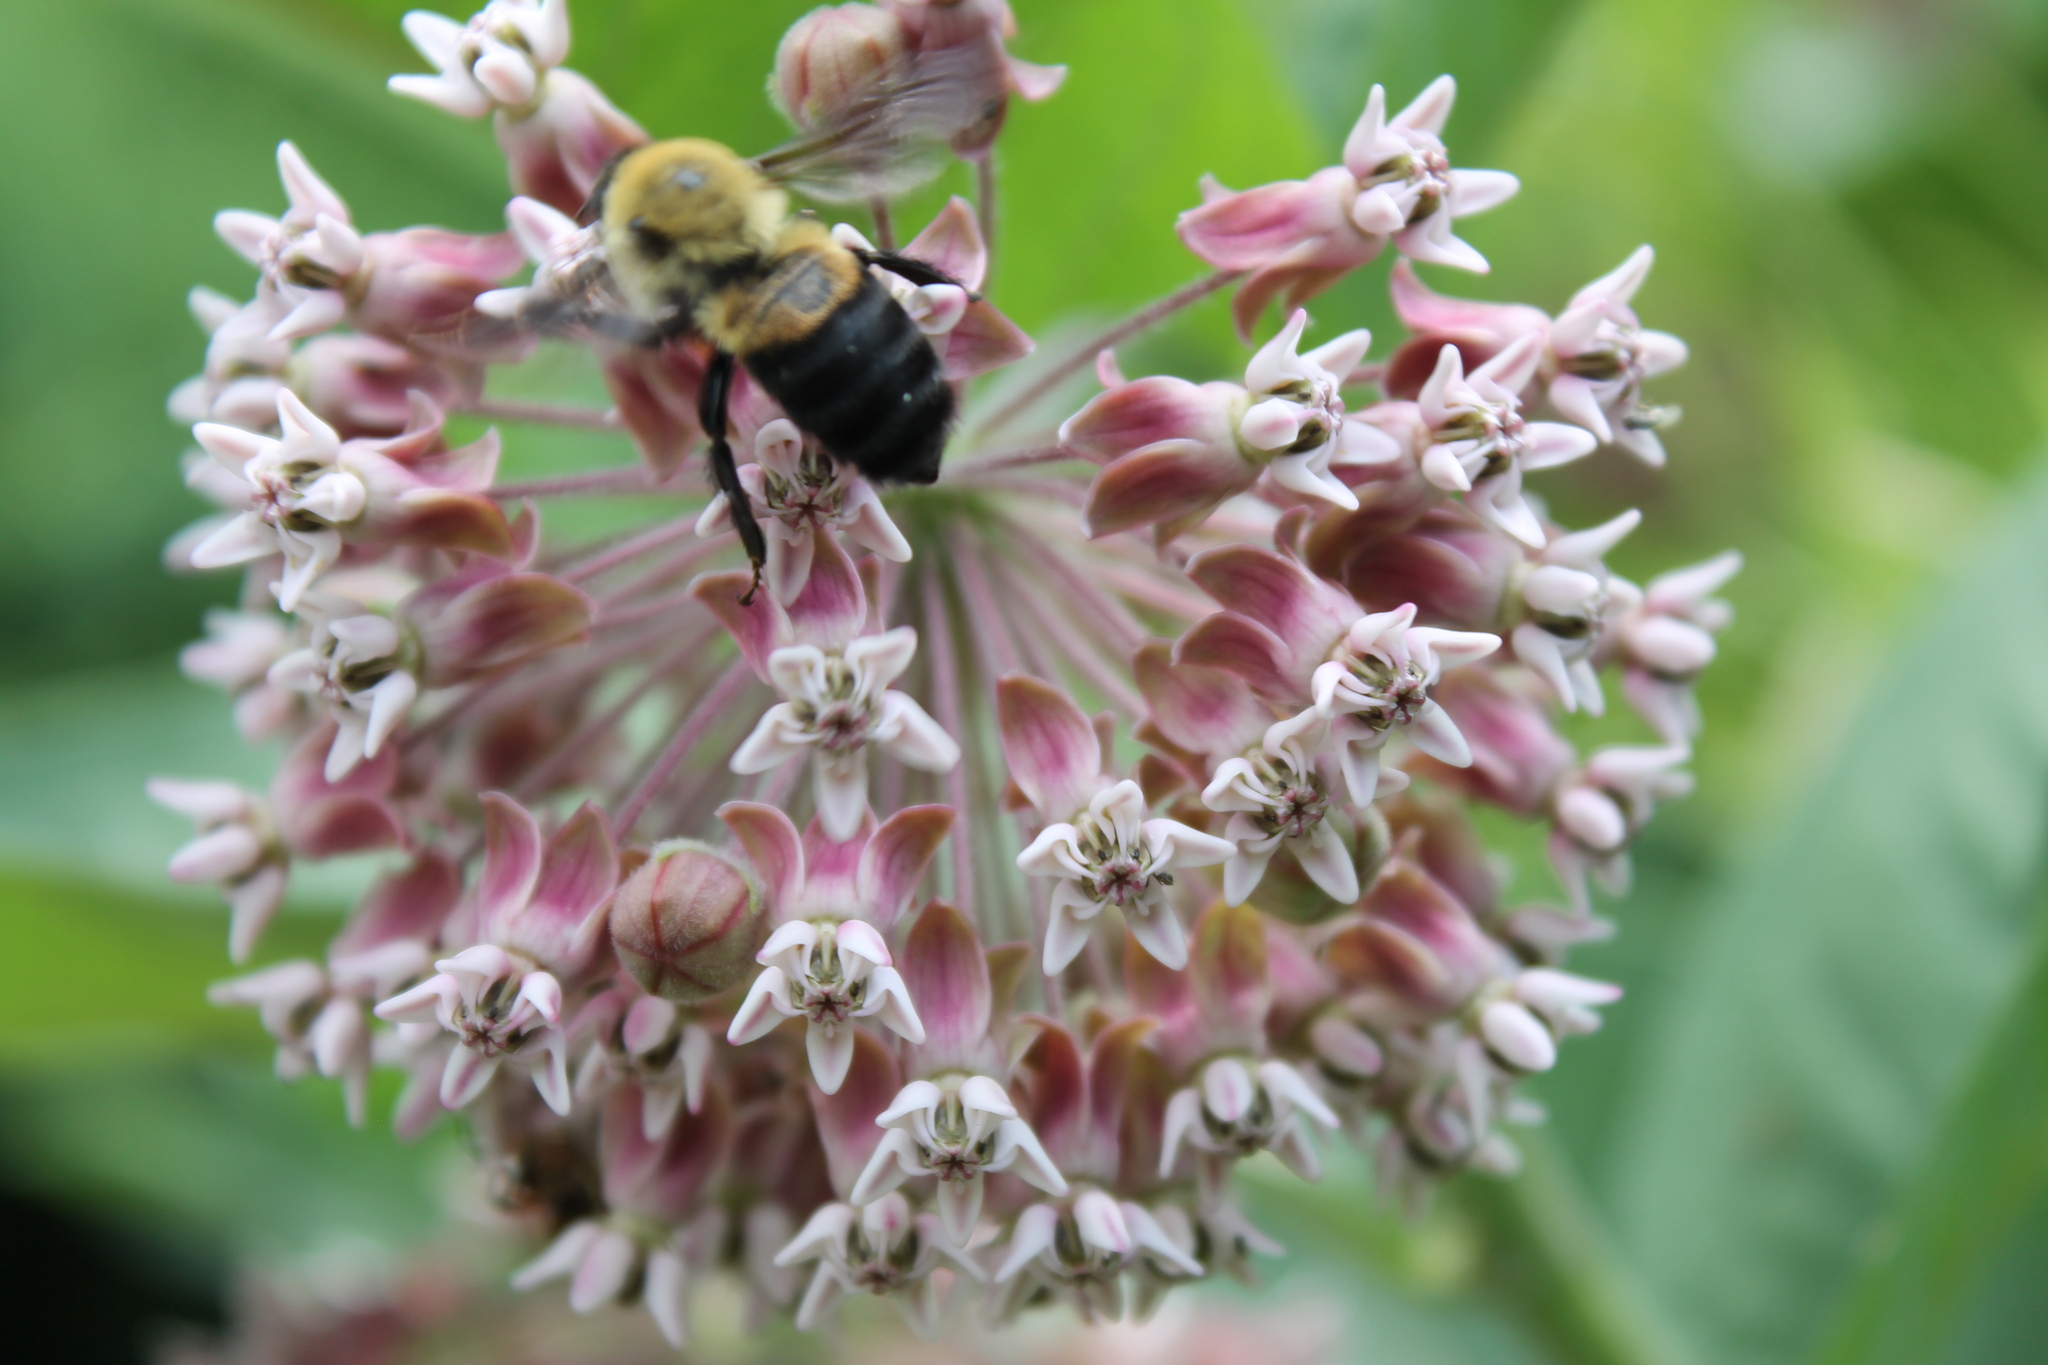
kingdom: Plantae
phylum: Tracheophyta
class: Magnoliopsida
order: Gentianales
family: Apocynaceae
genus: Asclepias
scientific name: Asclepias syriaca
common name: Common milkweed
